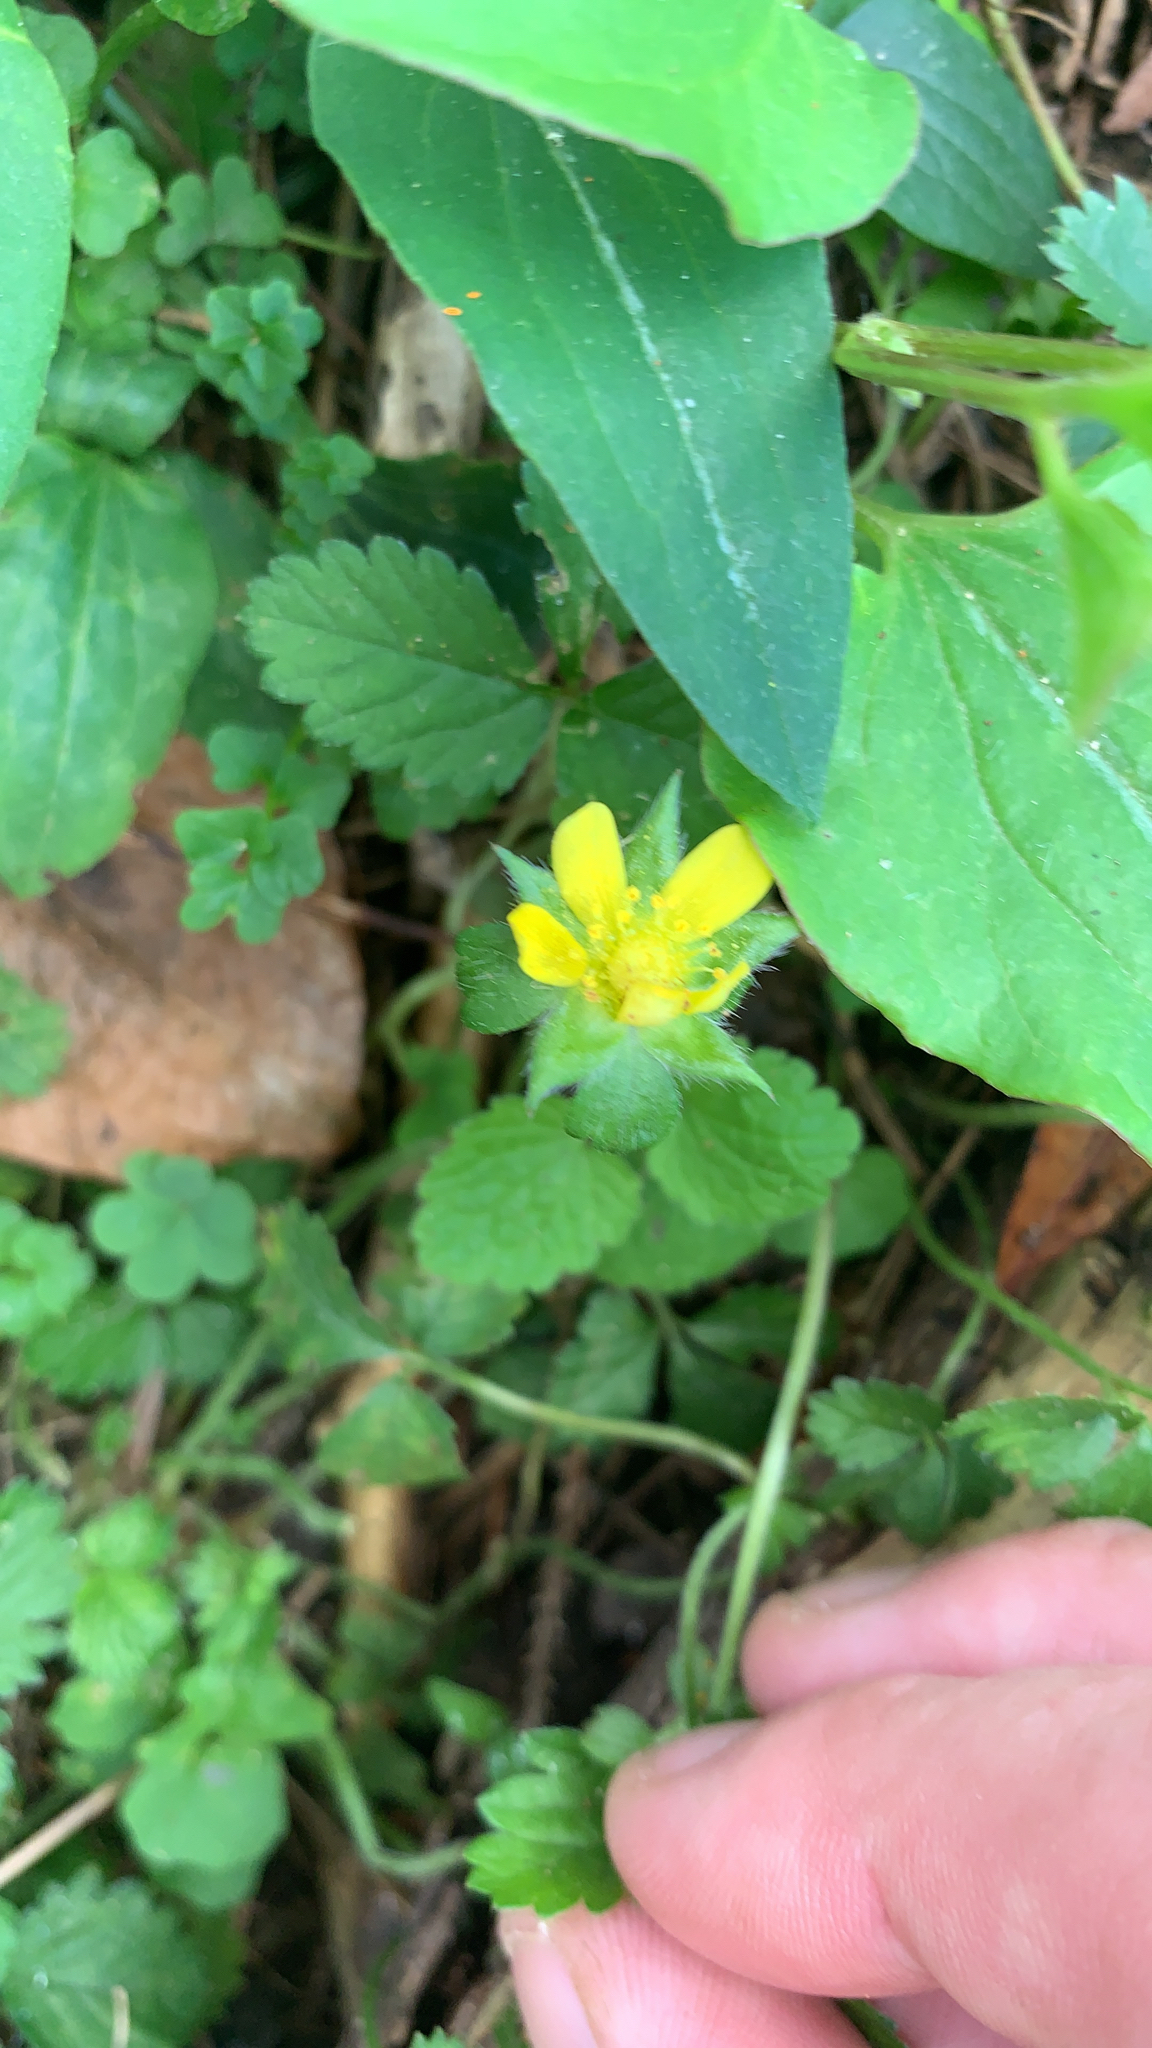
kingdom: Plantae
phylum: Tracheophyta
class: Magnoliopsida
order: Rosales
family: Rosaceae
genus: Potentilla
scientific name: Potentilla indica
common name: Yellow-flowered strawberry
